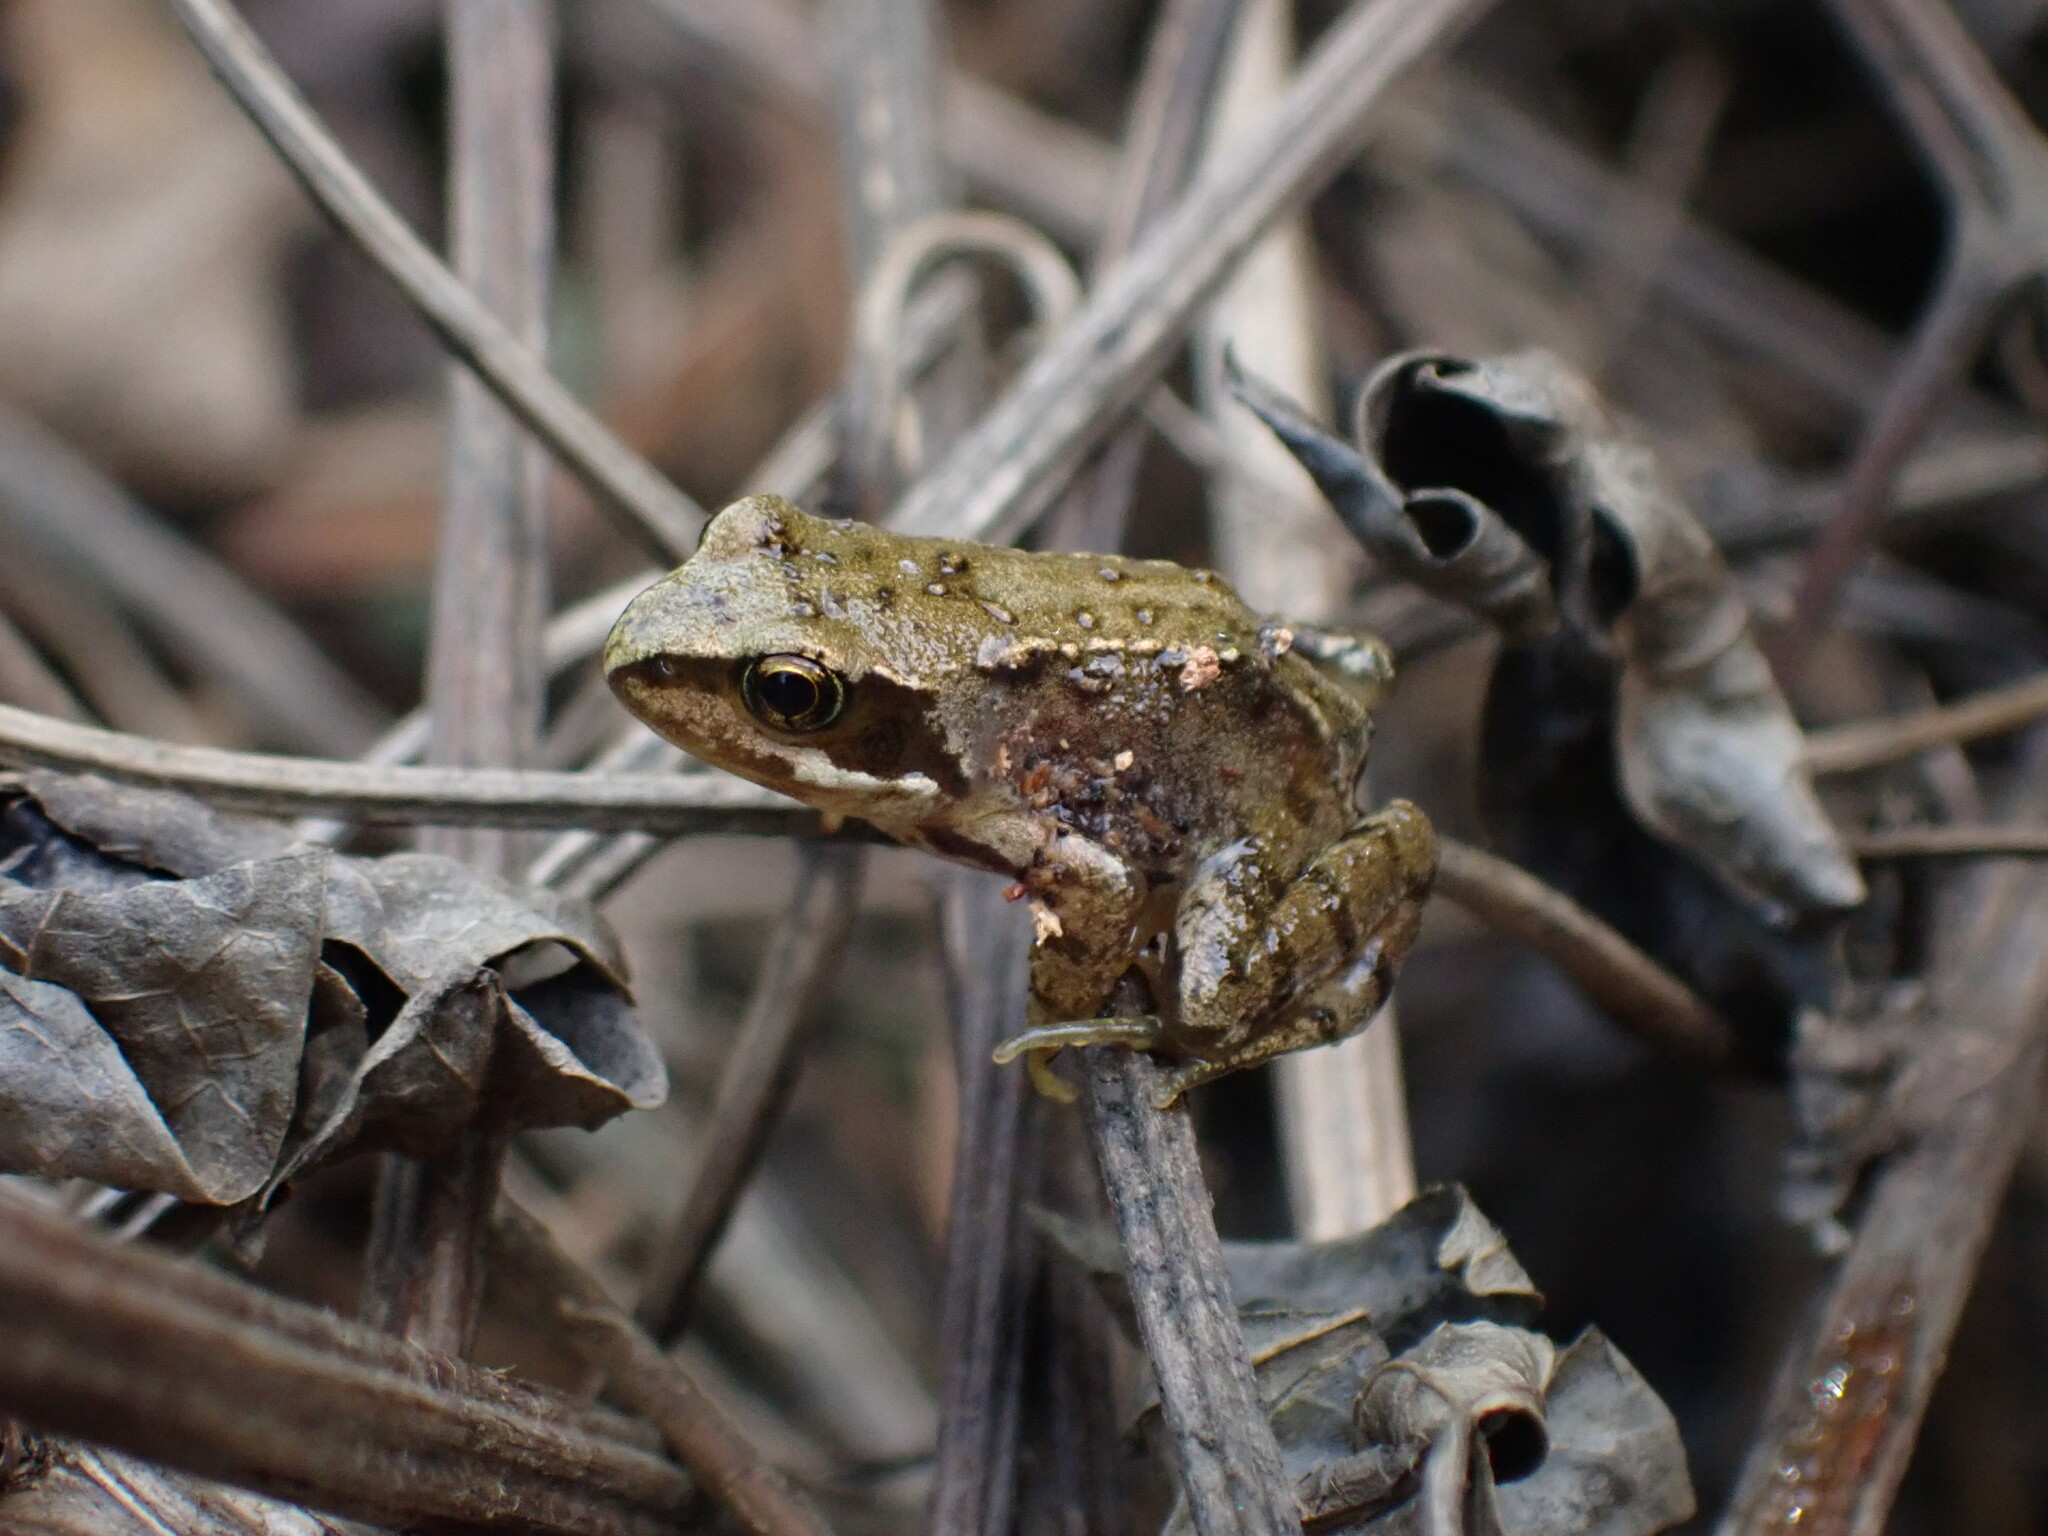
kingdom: Animalia
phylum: Chordata
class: Amphibia
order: Anura
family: Ranidae
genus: Rana
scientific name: Rana temporaria
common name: Common frog
